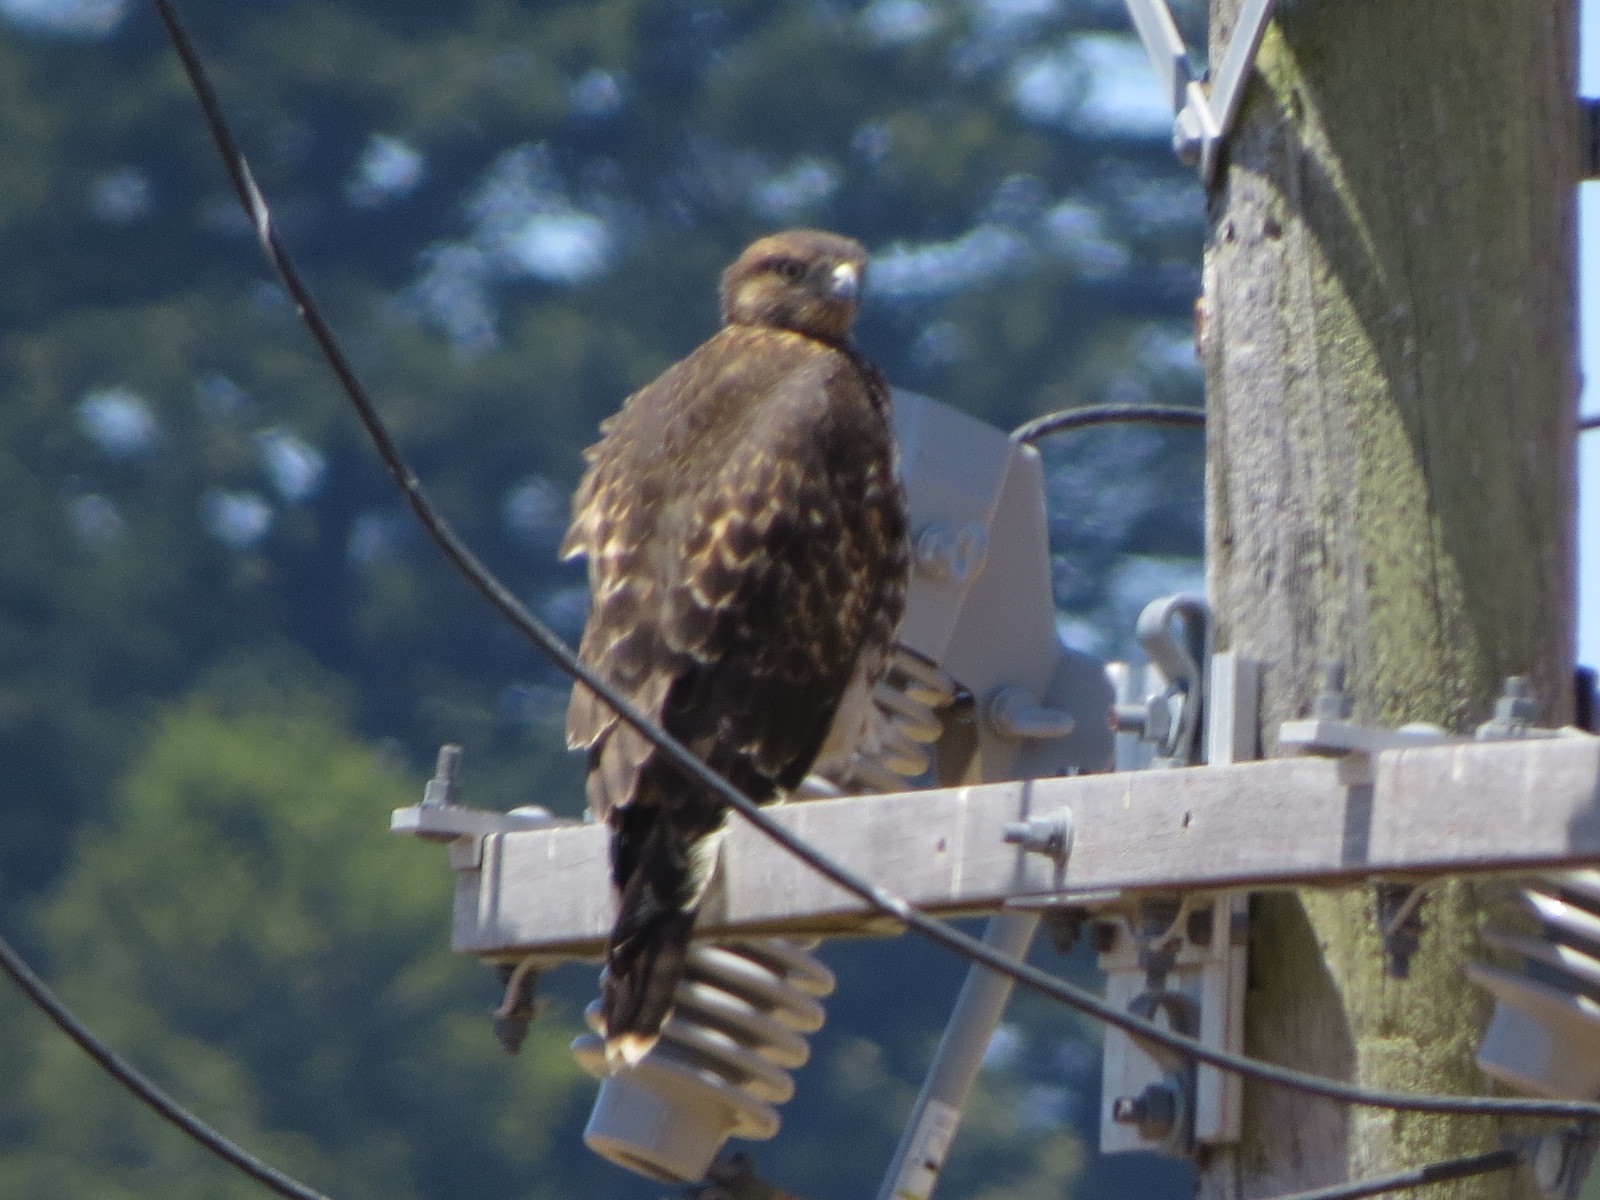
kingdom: Animalia
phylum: Chordata
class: Aves
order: Accipitriformes
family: Accipitridae
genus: Buteo
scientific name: Buteo jamaicensis
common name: Red-tailed hawk
